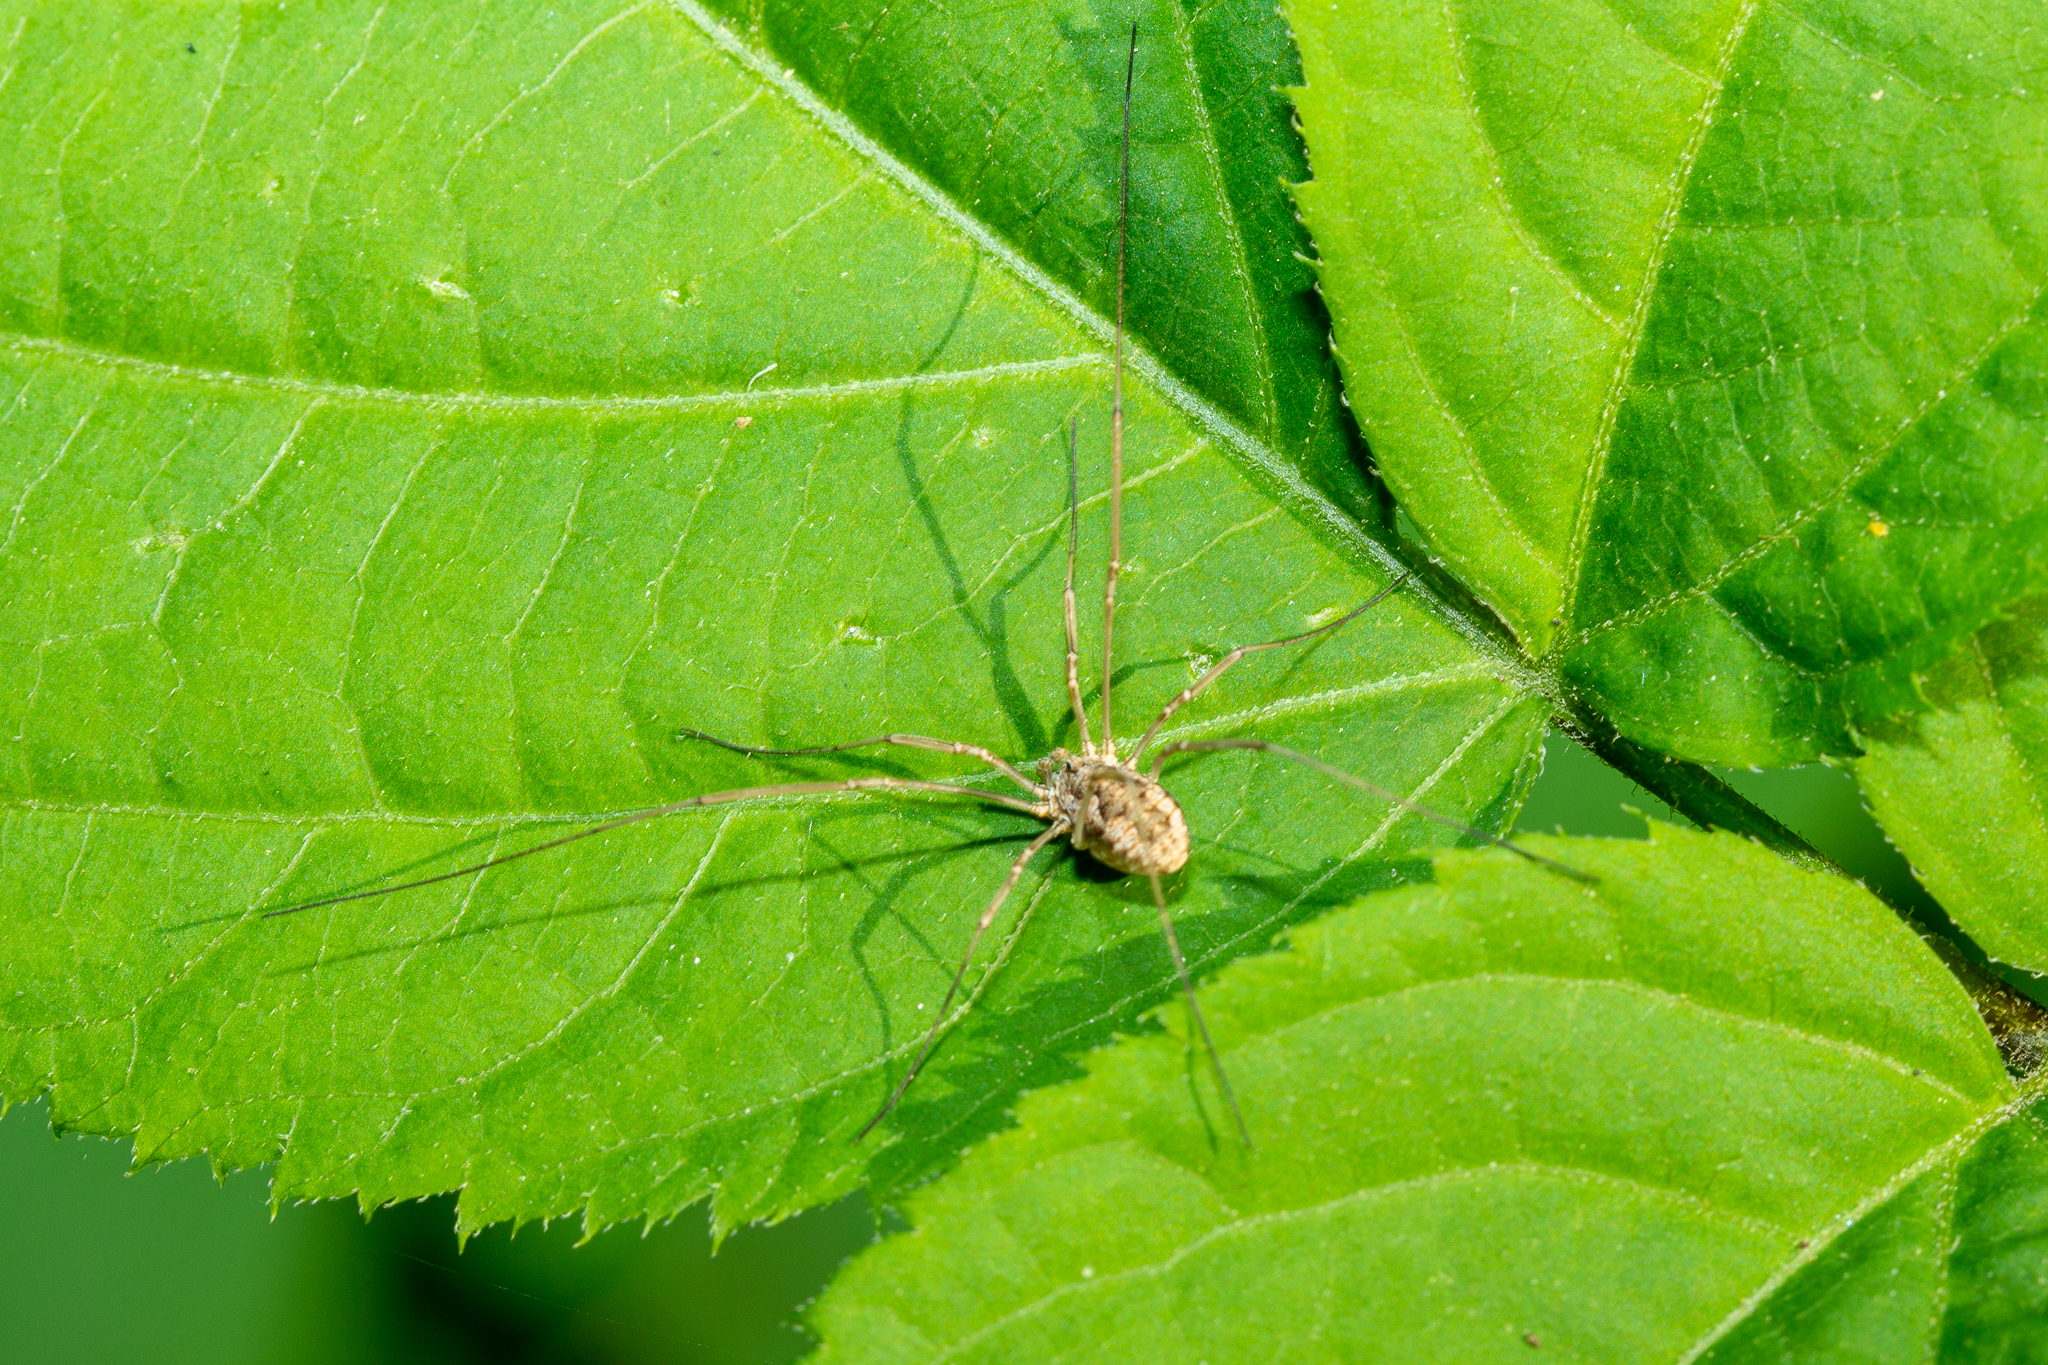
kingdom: Animalia
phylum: Arthropoda
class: Arachnida
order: Opiliones
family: Phalangiidae
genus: Phalangium
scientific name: Phalangium opilio
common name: Daddy longleg
